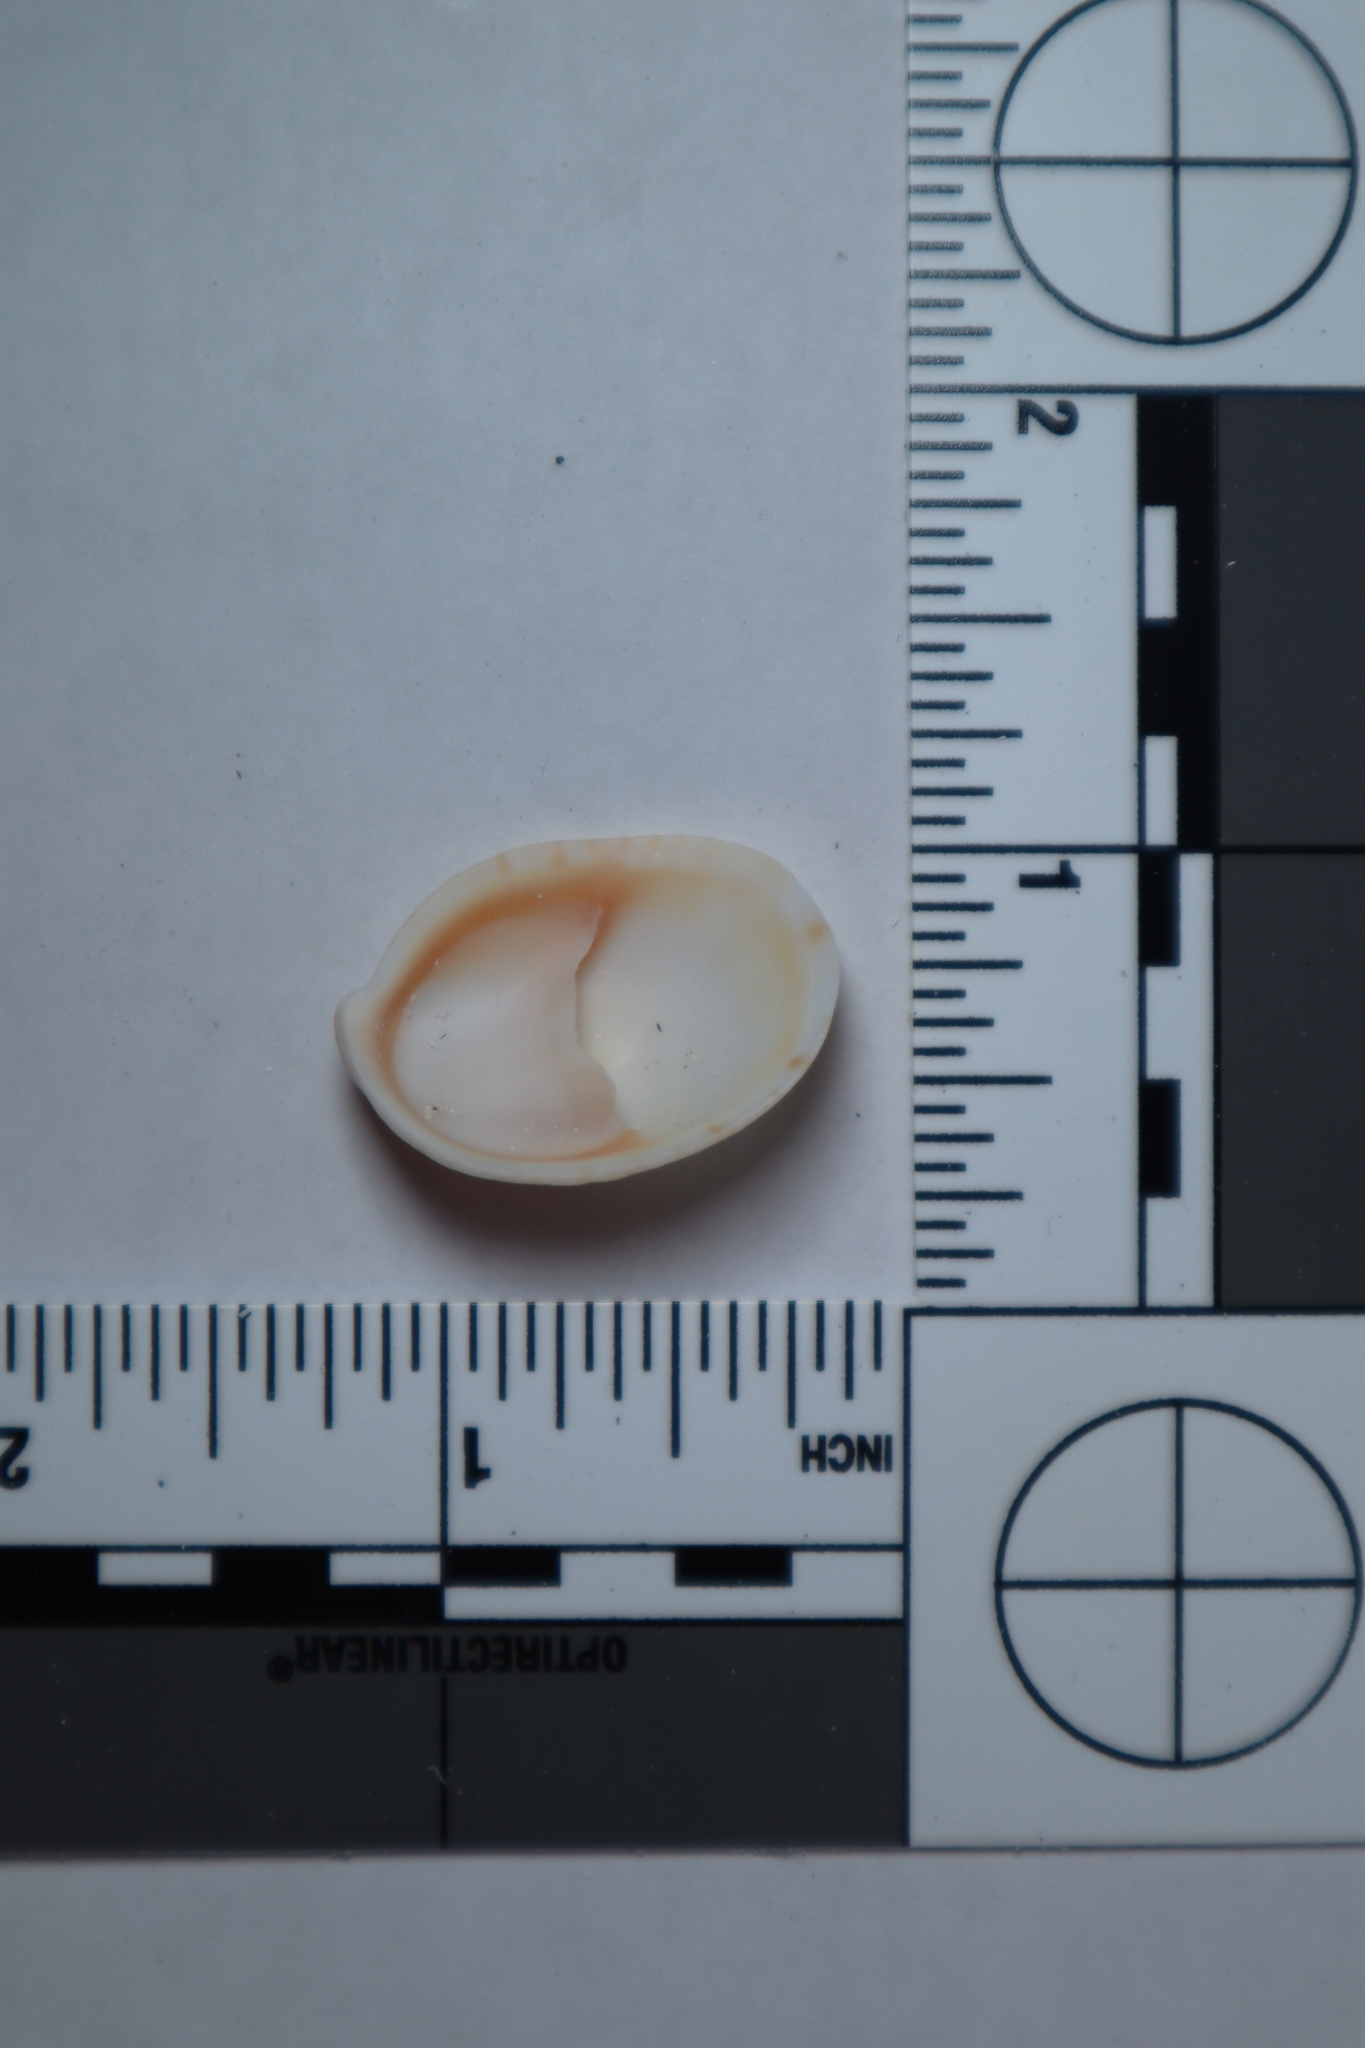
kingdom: Animalia
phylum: Mollusca
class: Gastropoda
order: Littorinimorpha
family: Calyptraeidae
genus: Crepidula
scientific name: Crepidula fornicata
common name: Slipper limpet
